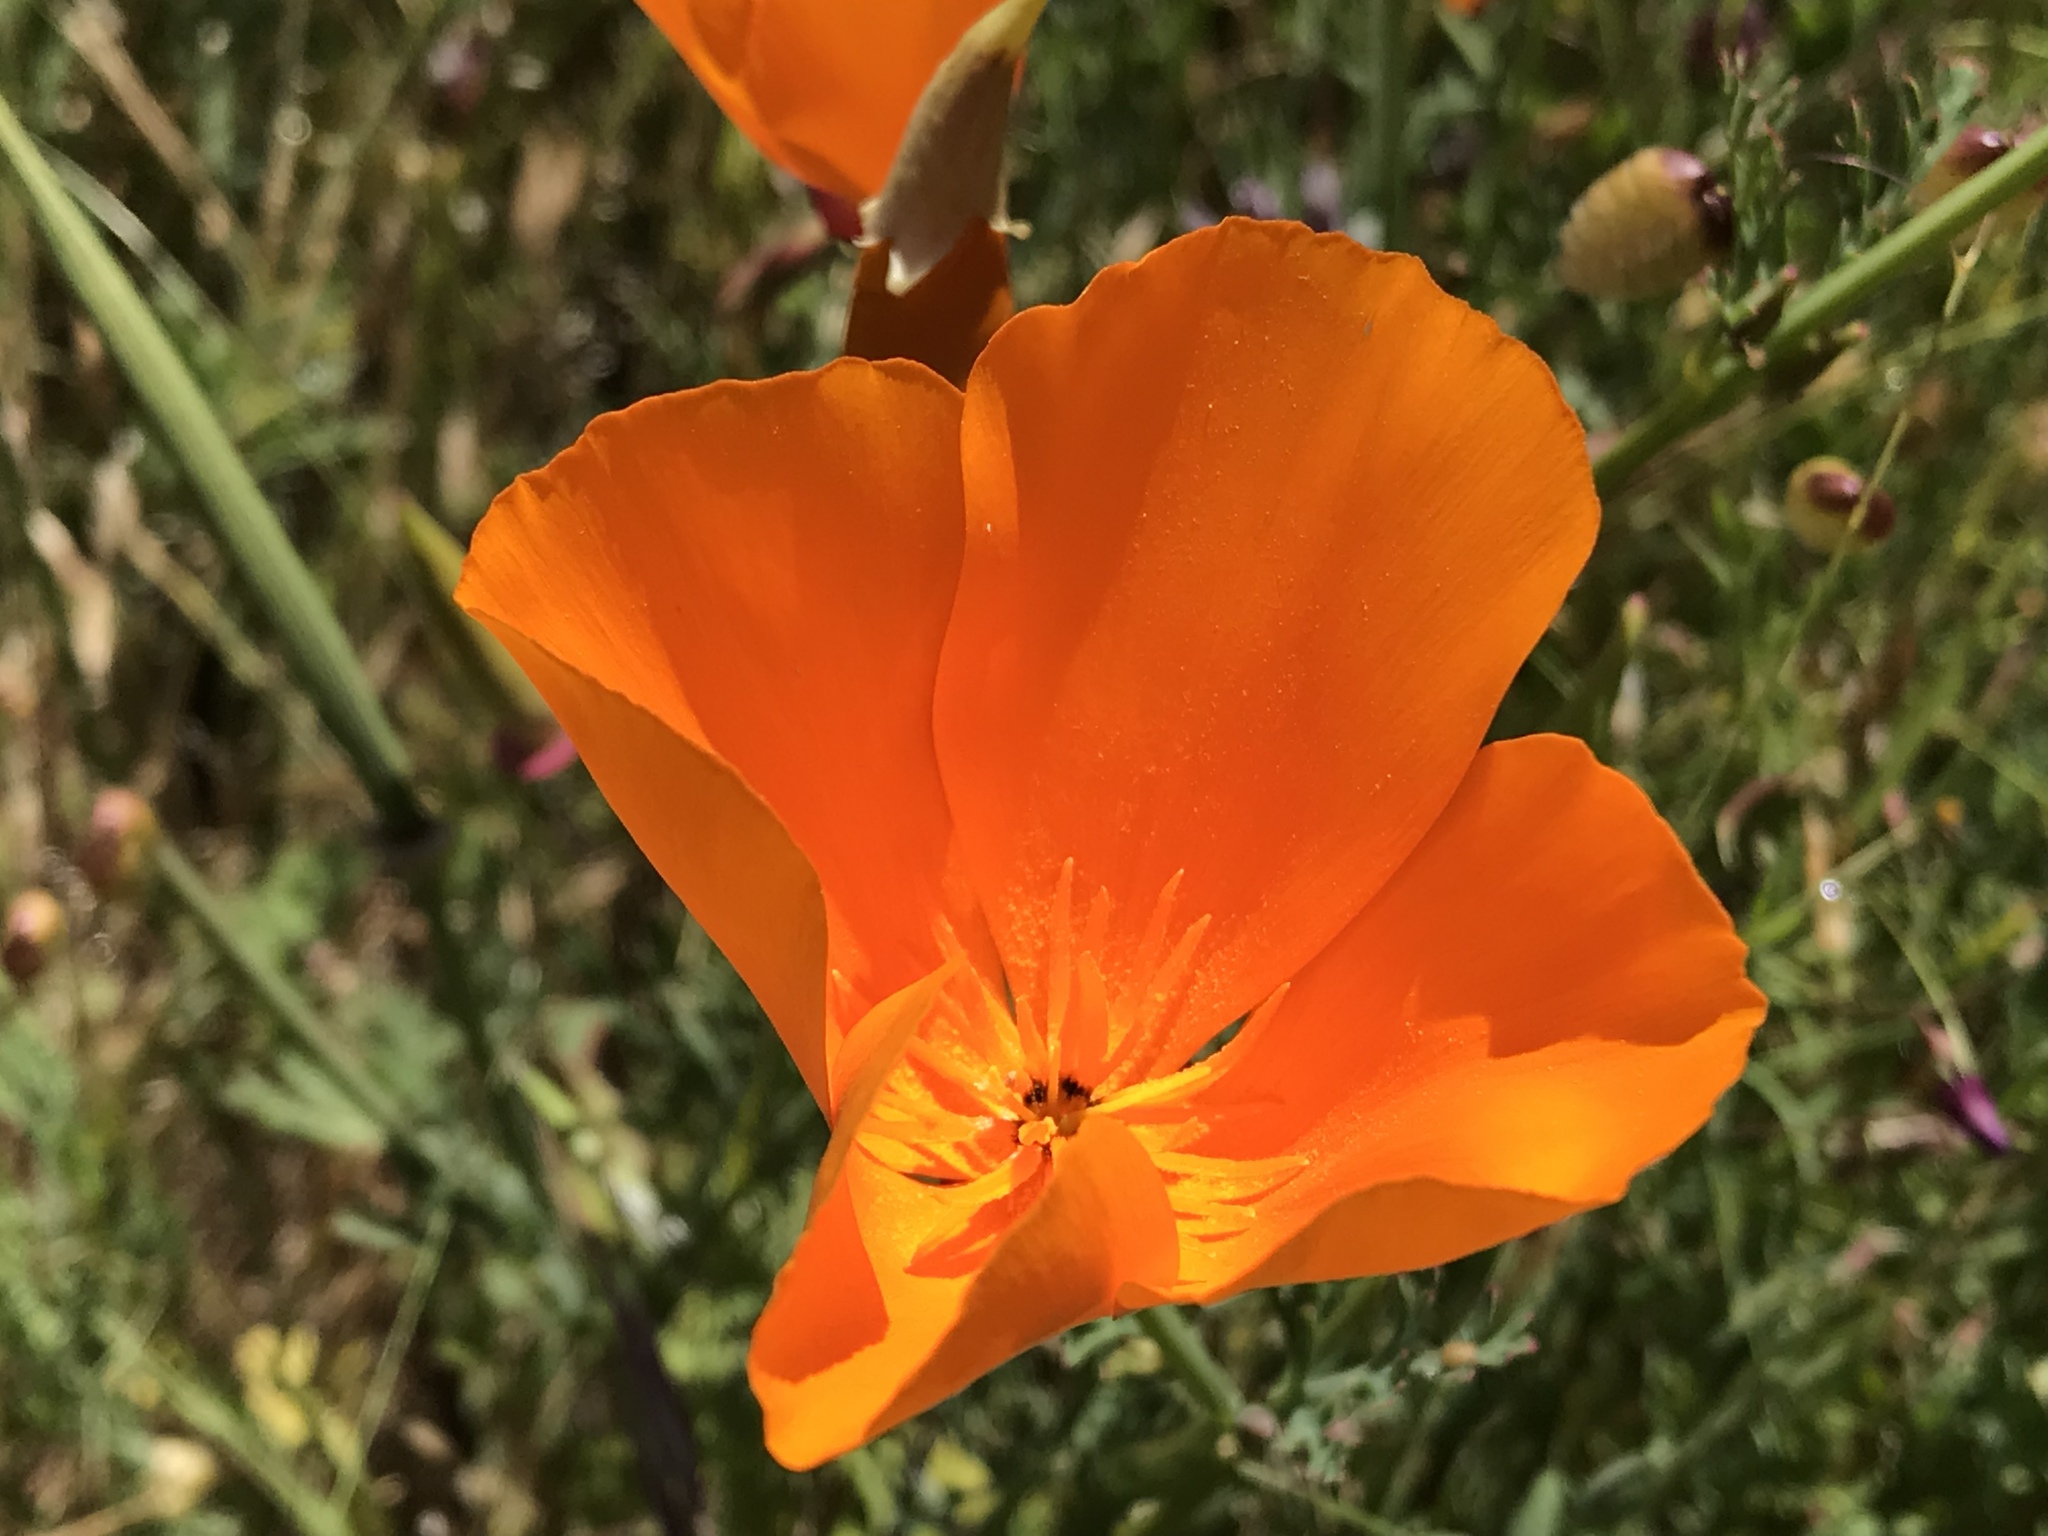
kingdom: Plantae
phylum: Tracheophyta
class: Magnoliopsida
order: Ranunculales
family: Papaveraceae
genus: Eschscholzia
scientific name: Eschscholzia californica
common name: California poppy
